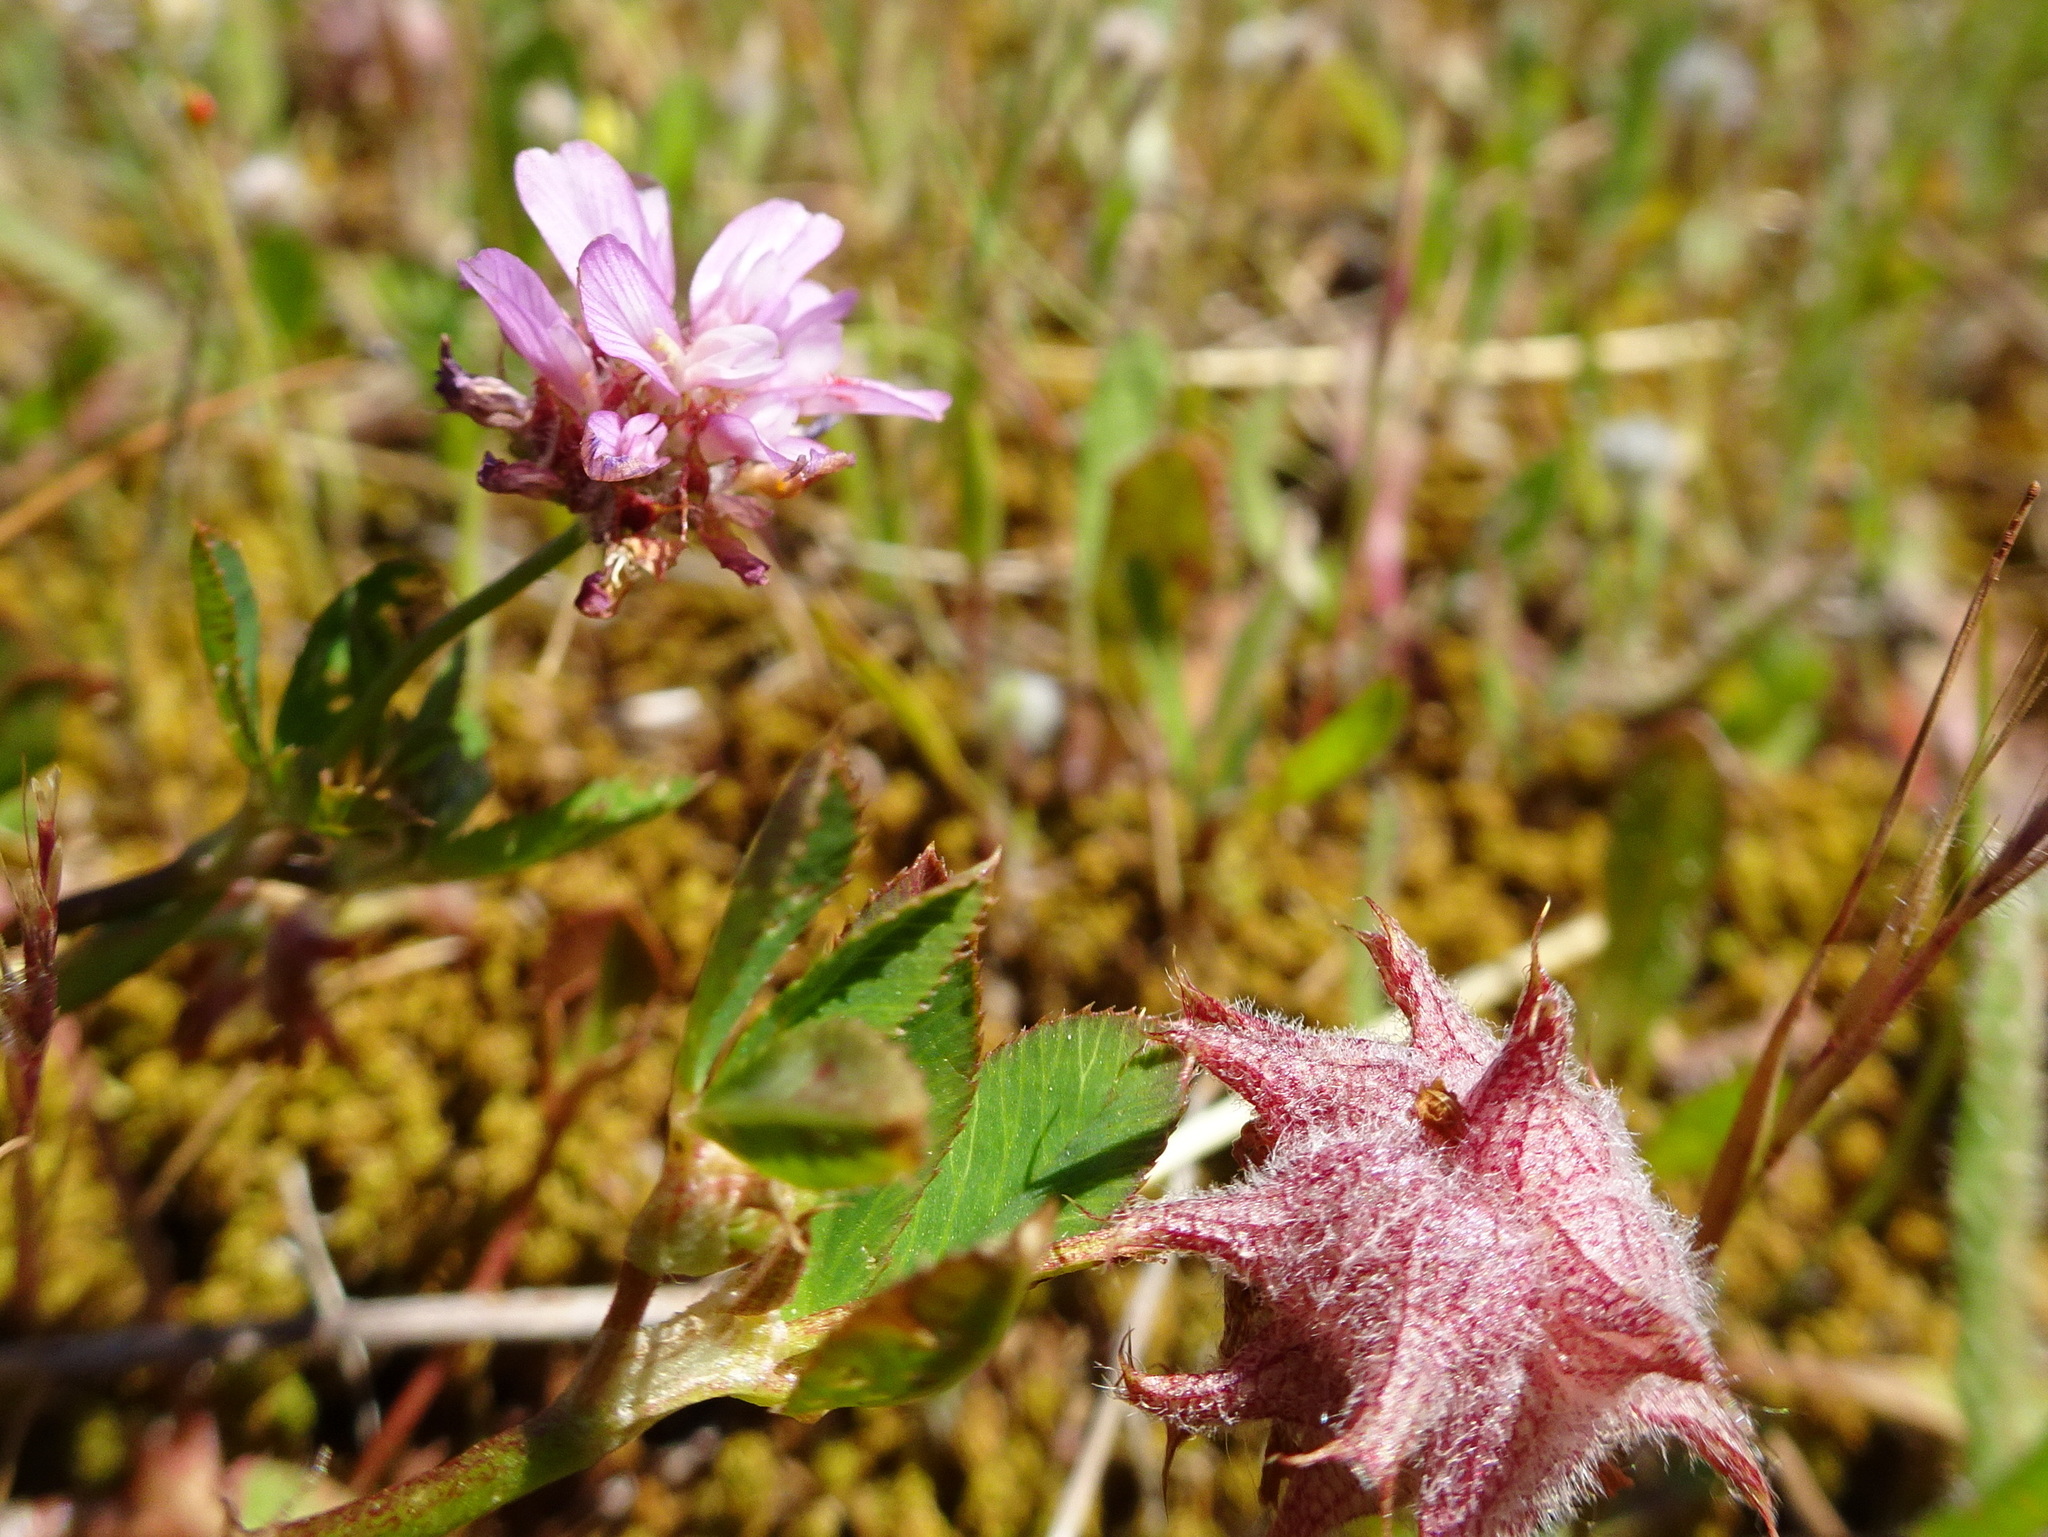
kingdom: Plantae
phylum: Tracheophyta
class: Magnoliopsida
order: Fabales
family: Fabaceae
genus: Trifolium
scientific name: Trifolium resupinatum
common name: Reversed clover
